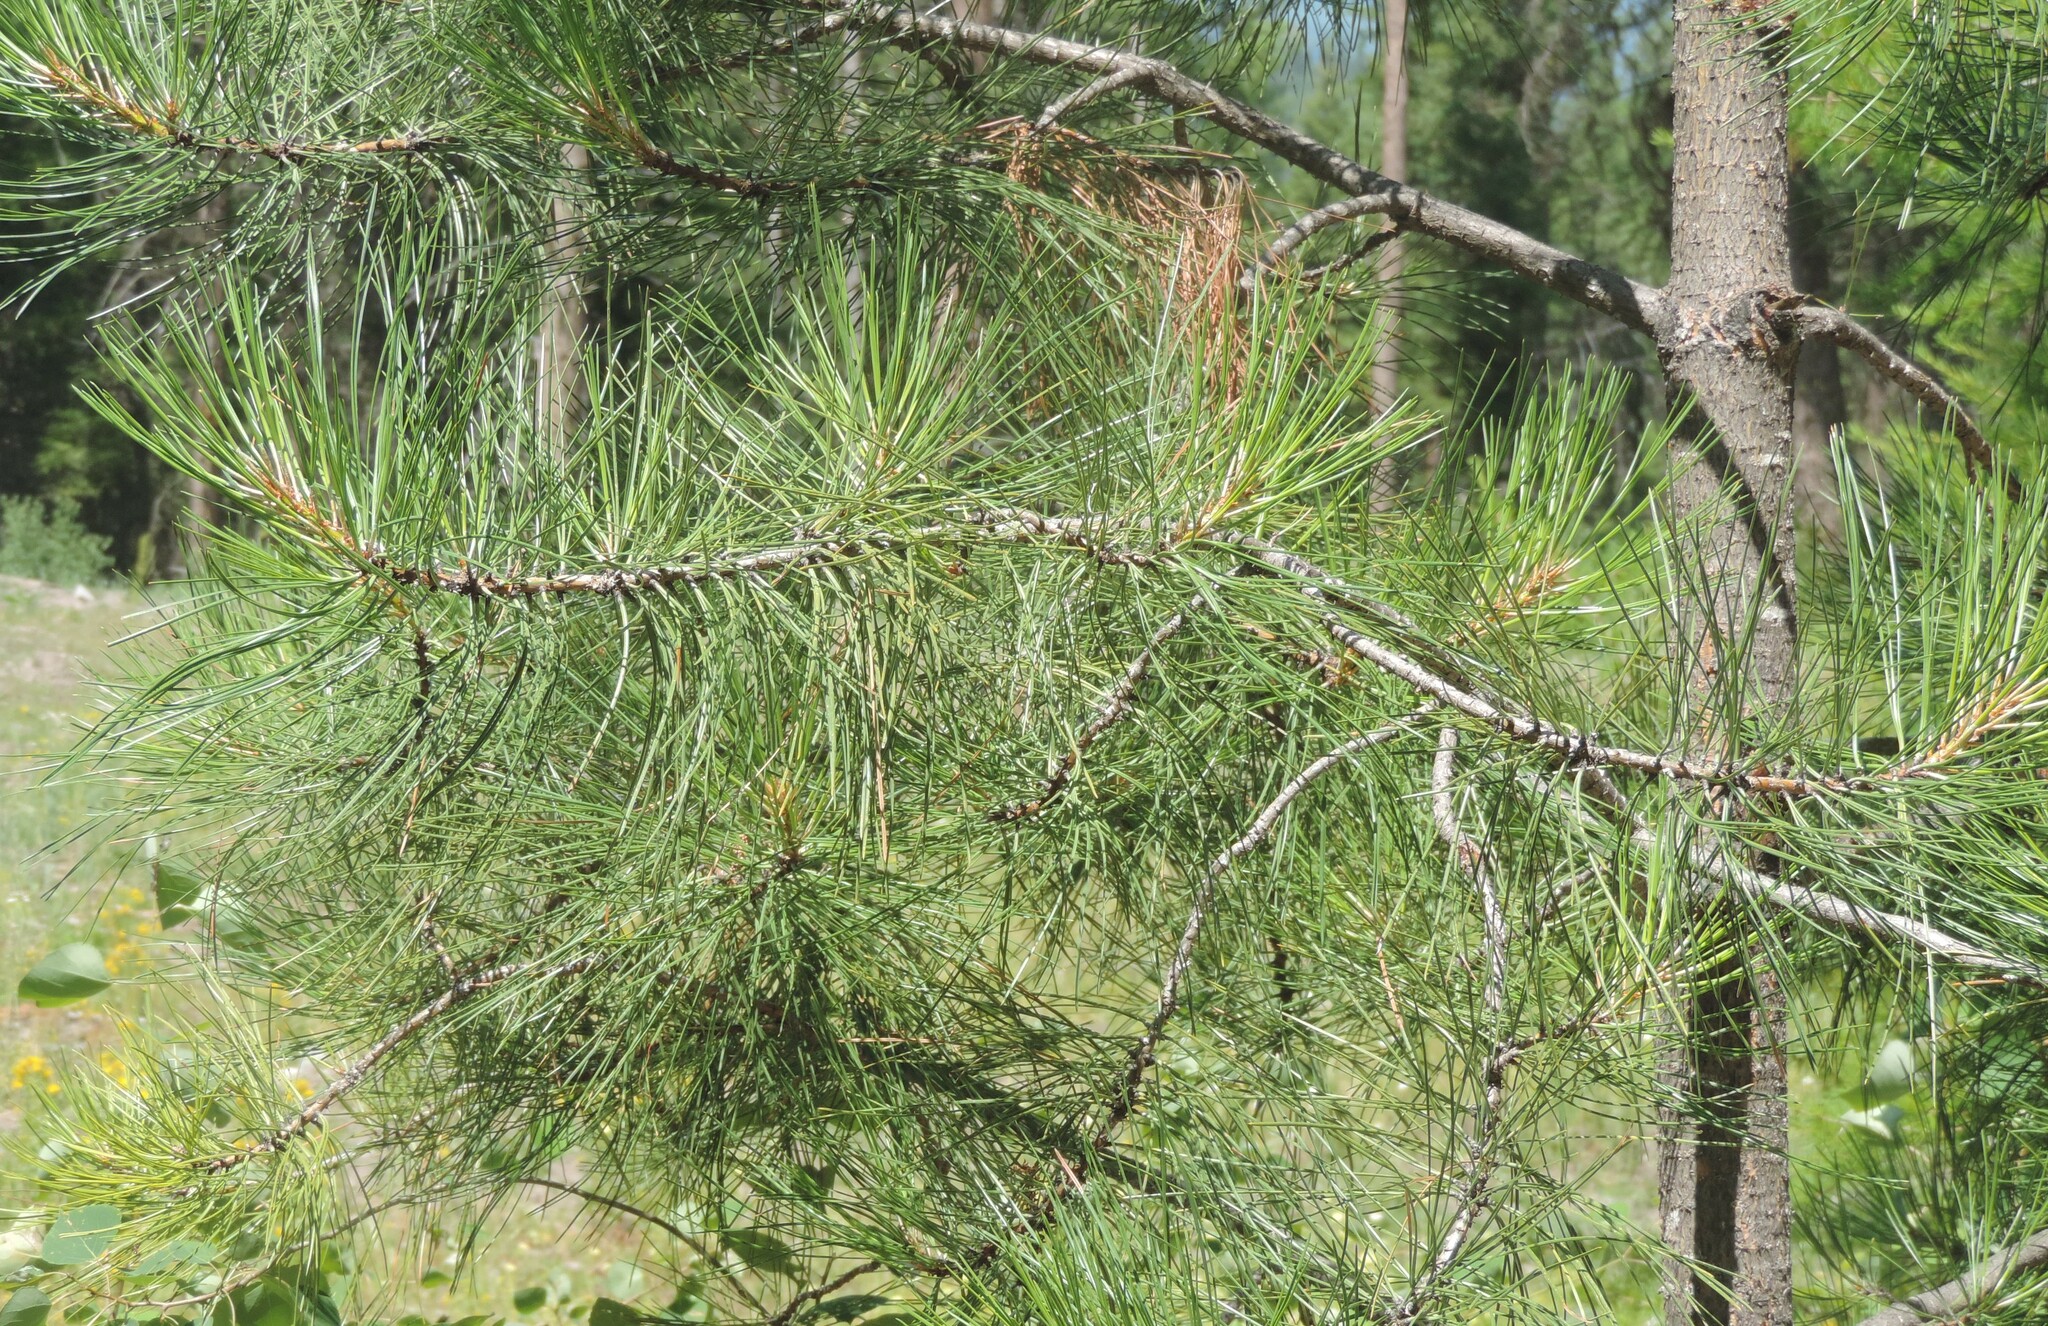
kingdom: Plantae
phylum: Tracheophyta
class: Pinopsida
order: Pinales
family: Pinaceae
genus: Pinus
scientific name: Pinus ponderosa
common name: Western yellow-pine
